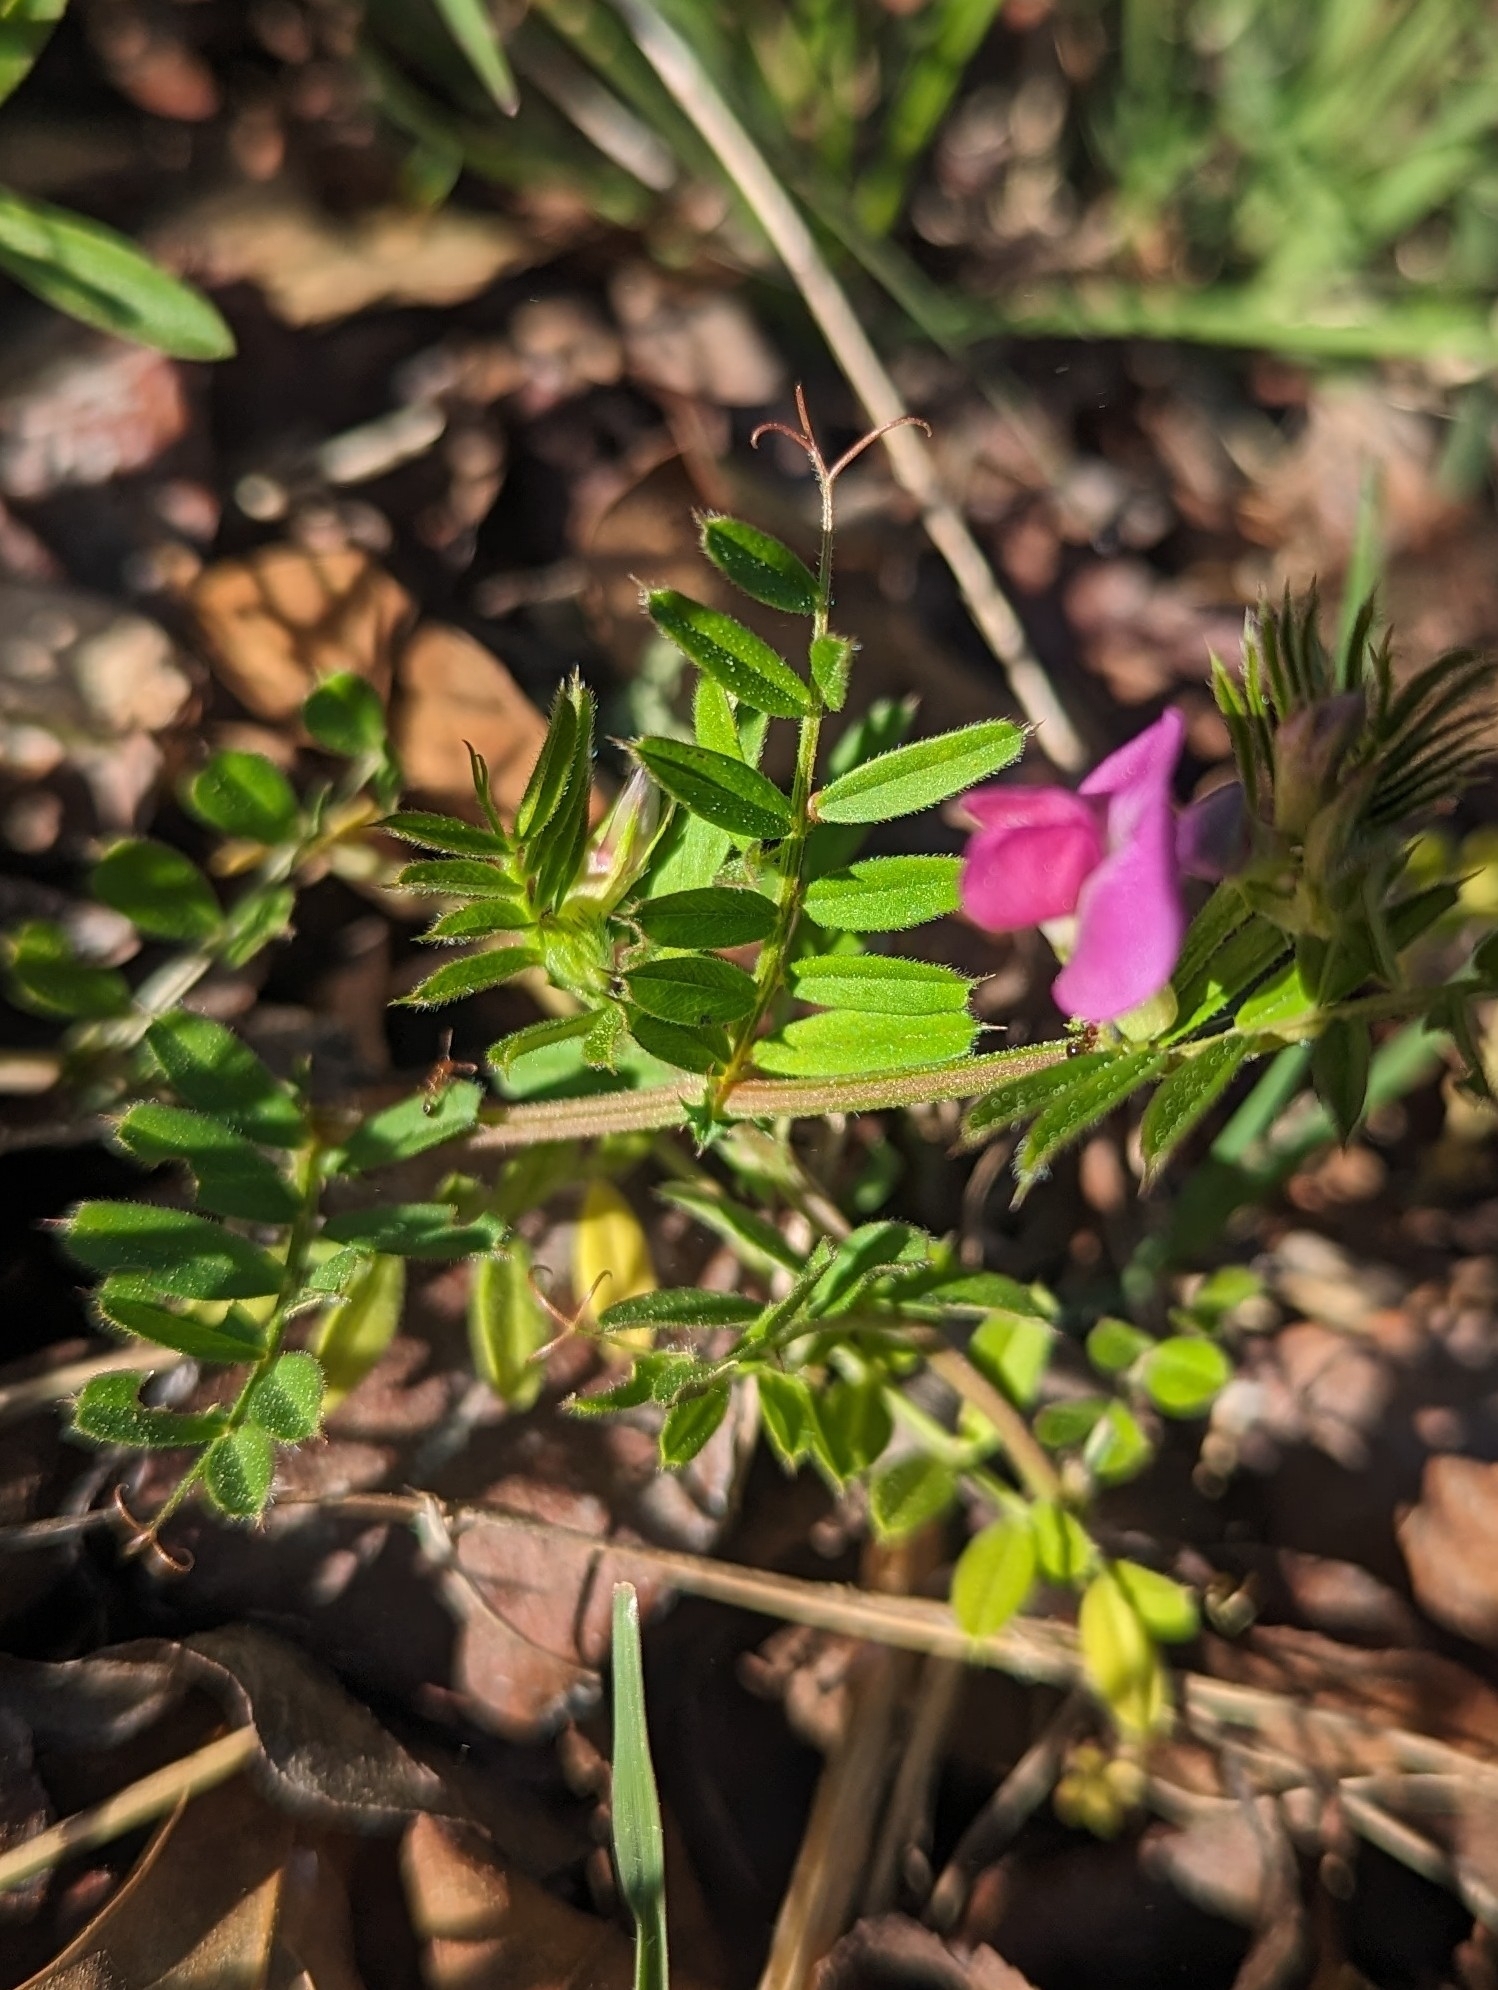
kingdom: Plantae
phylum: Tracheophyta
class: Magnoliopsida
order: Fabales
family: Fabaceae
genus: Vicia
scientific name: Vicia sativa
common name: Garden vetch
